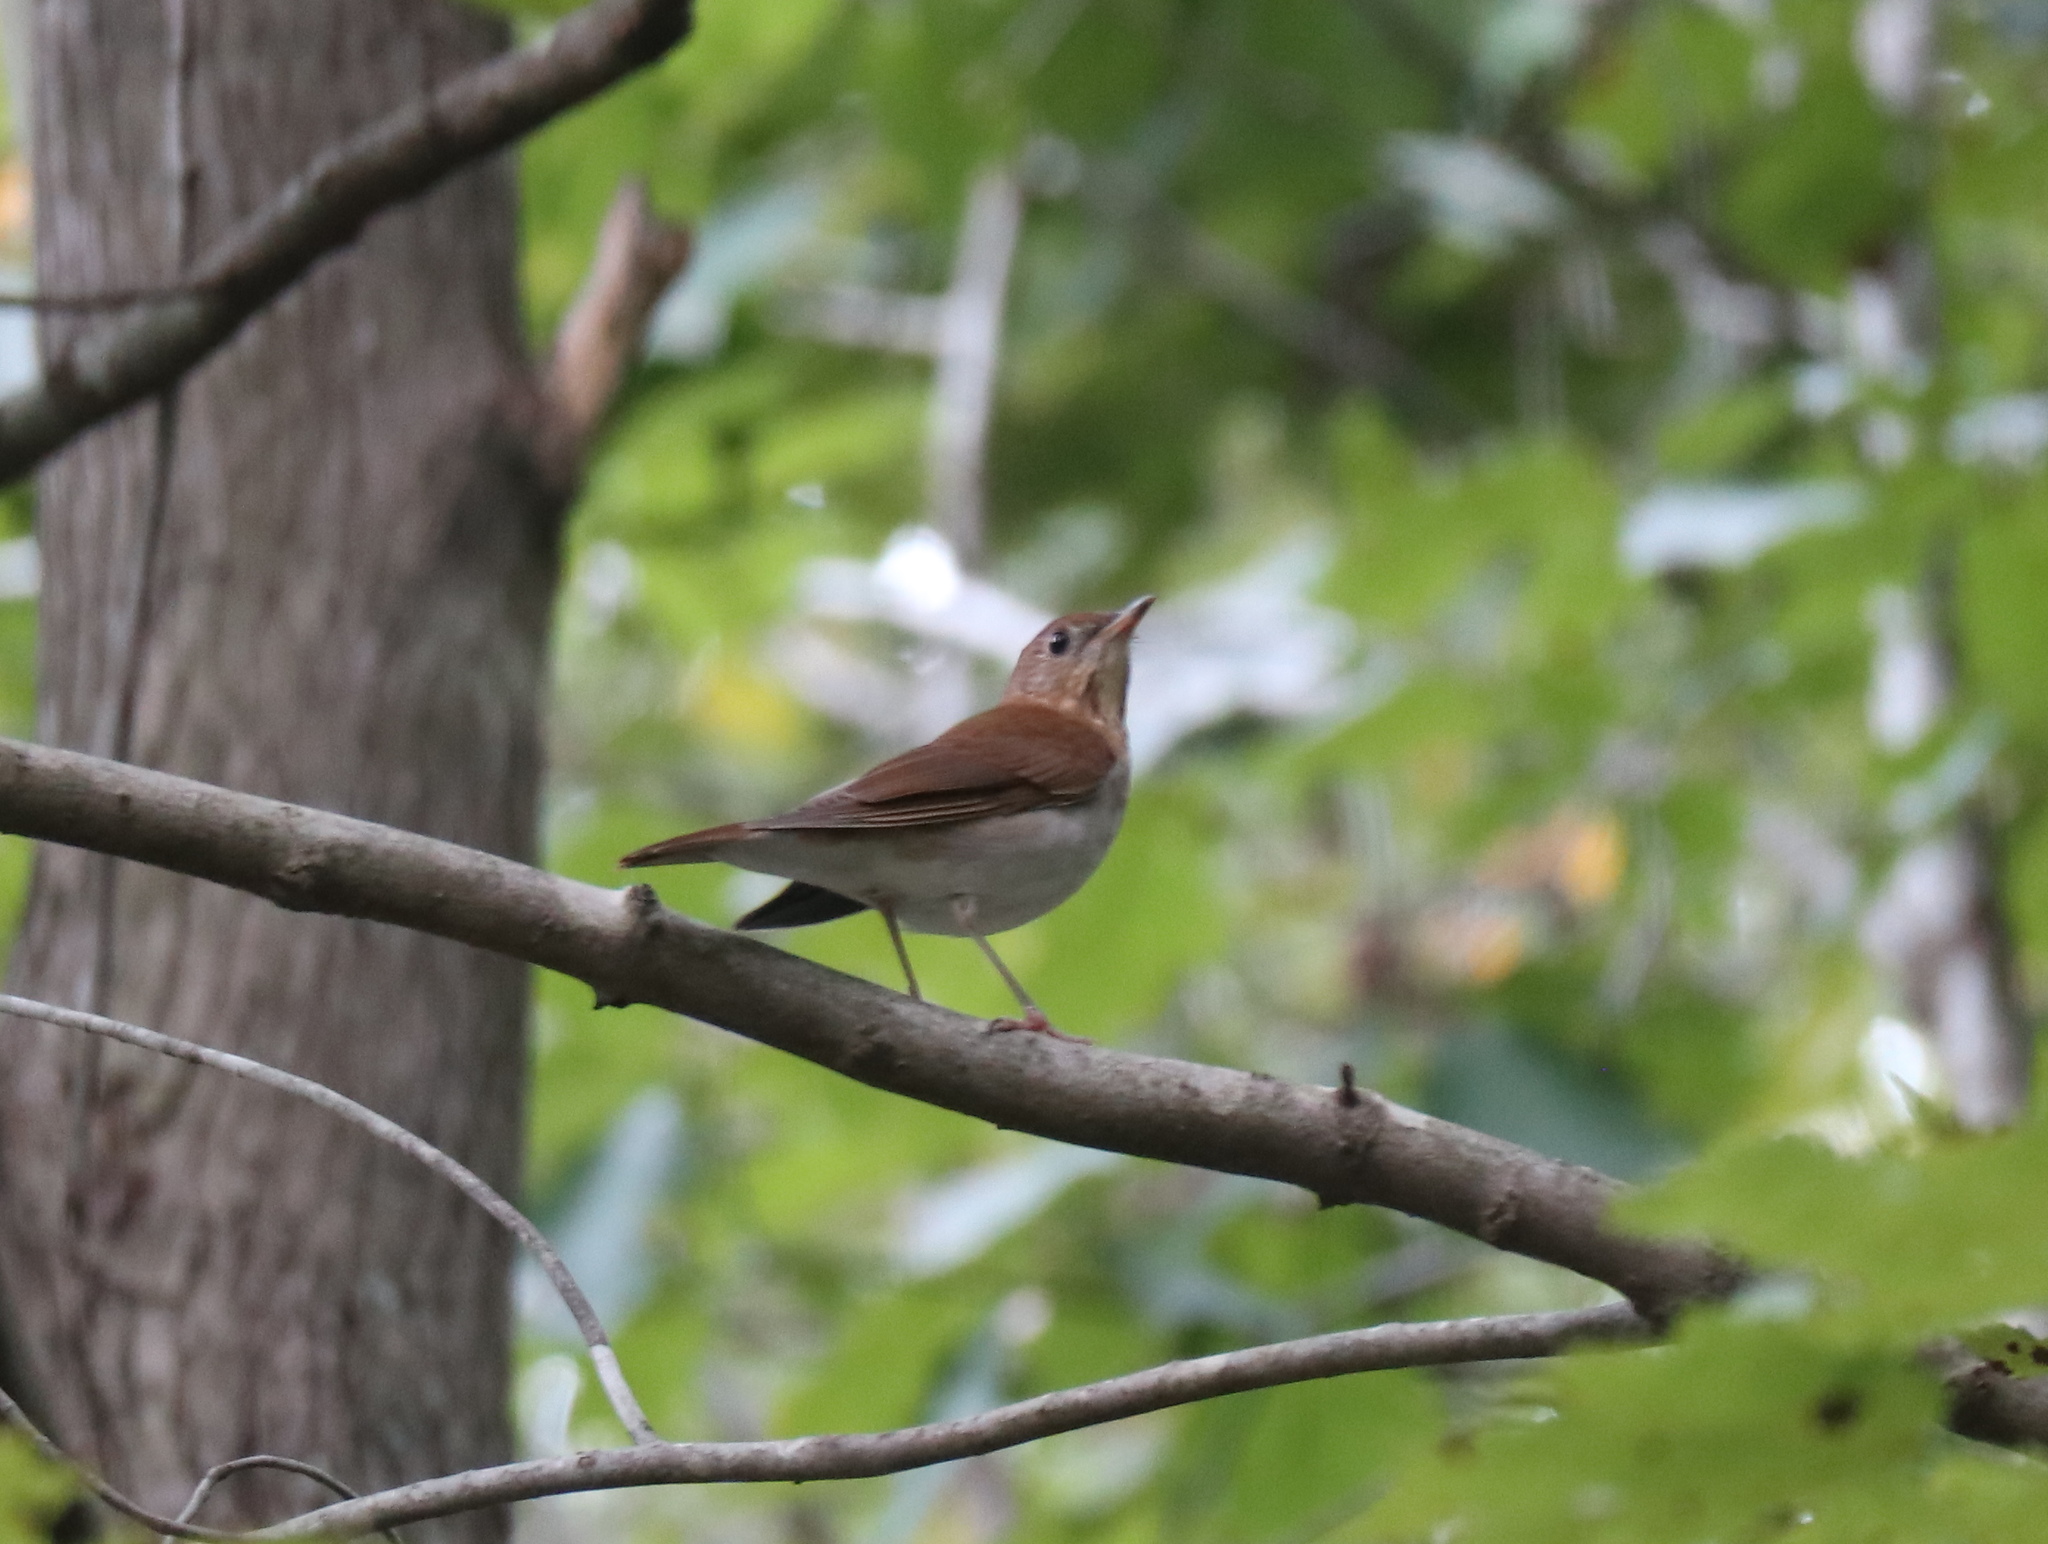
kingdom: Animalia
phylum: Chordata
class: Aves
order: Passeriformes
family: Turdidae
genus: Catharus
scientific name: Catharus fuscescens
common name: Veery
